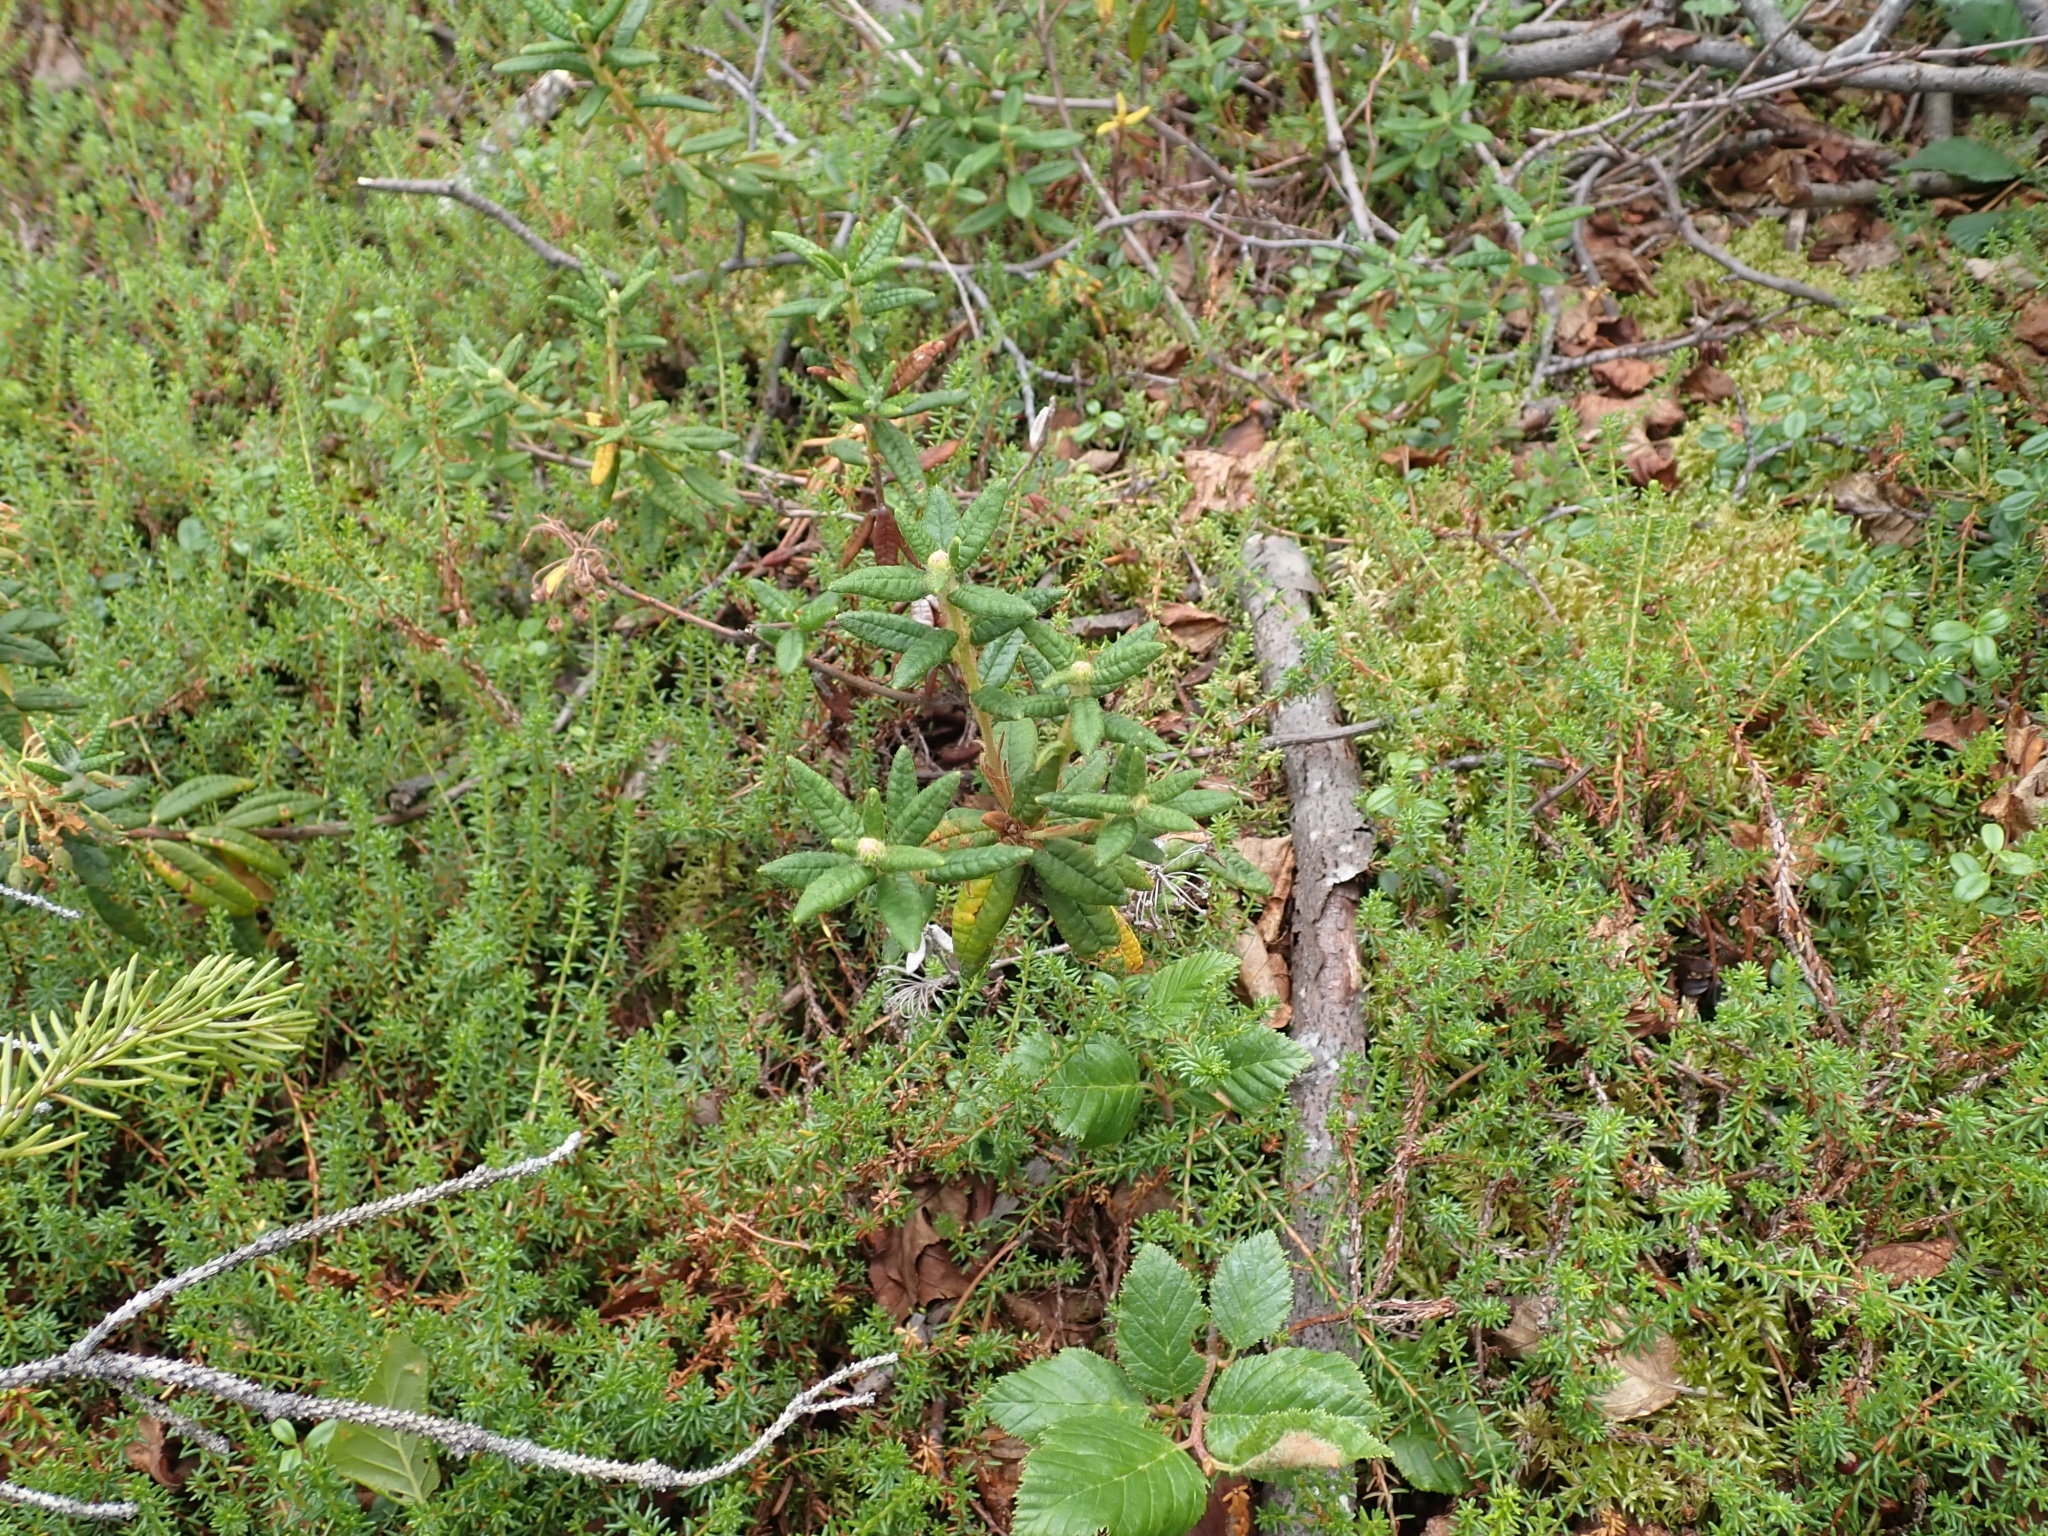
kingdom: Plantae
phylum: Tracheophyta
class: Magnoliopsida
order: Ericales
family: Ericaceae
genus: Rhododendron
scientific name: Rhododendron groenlandicum
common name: Bog labrador tea
